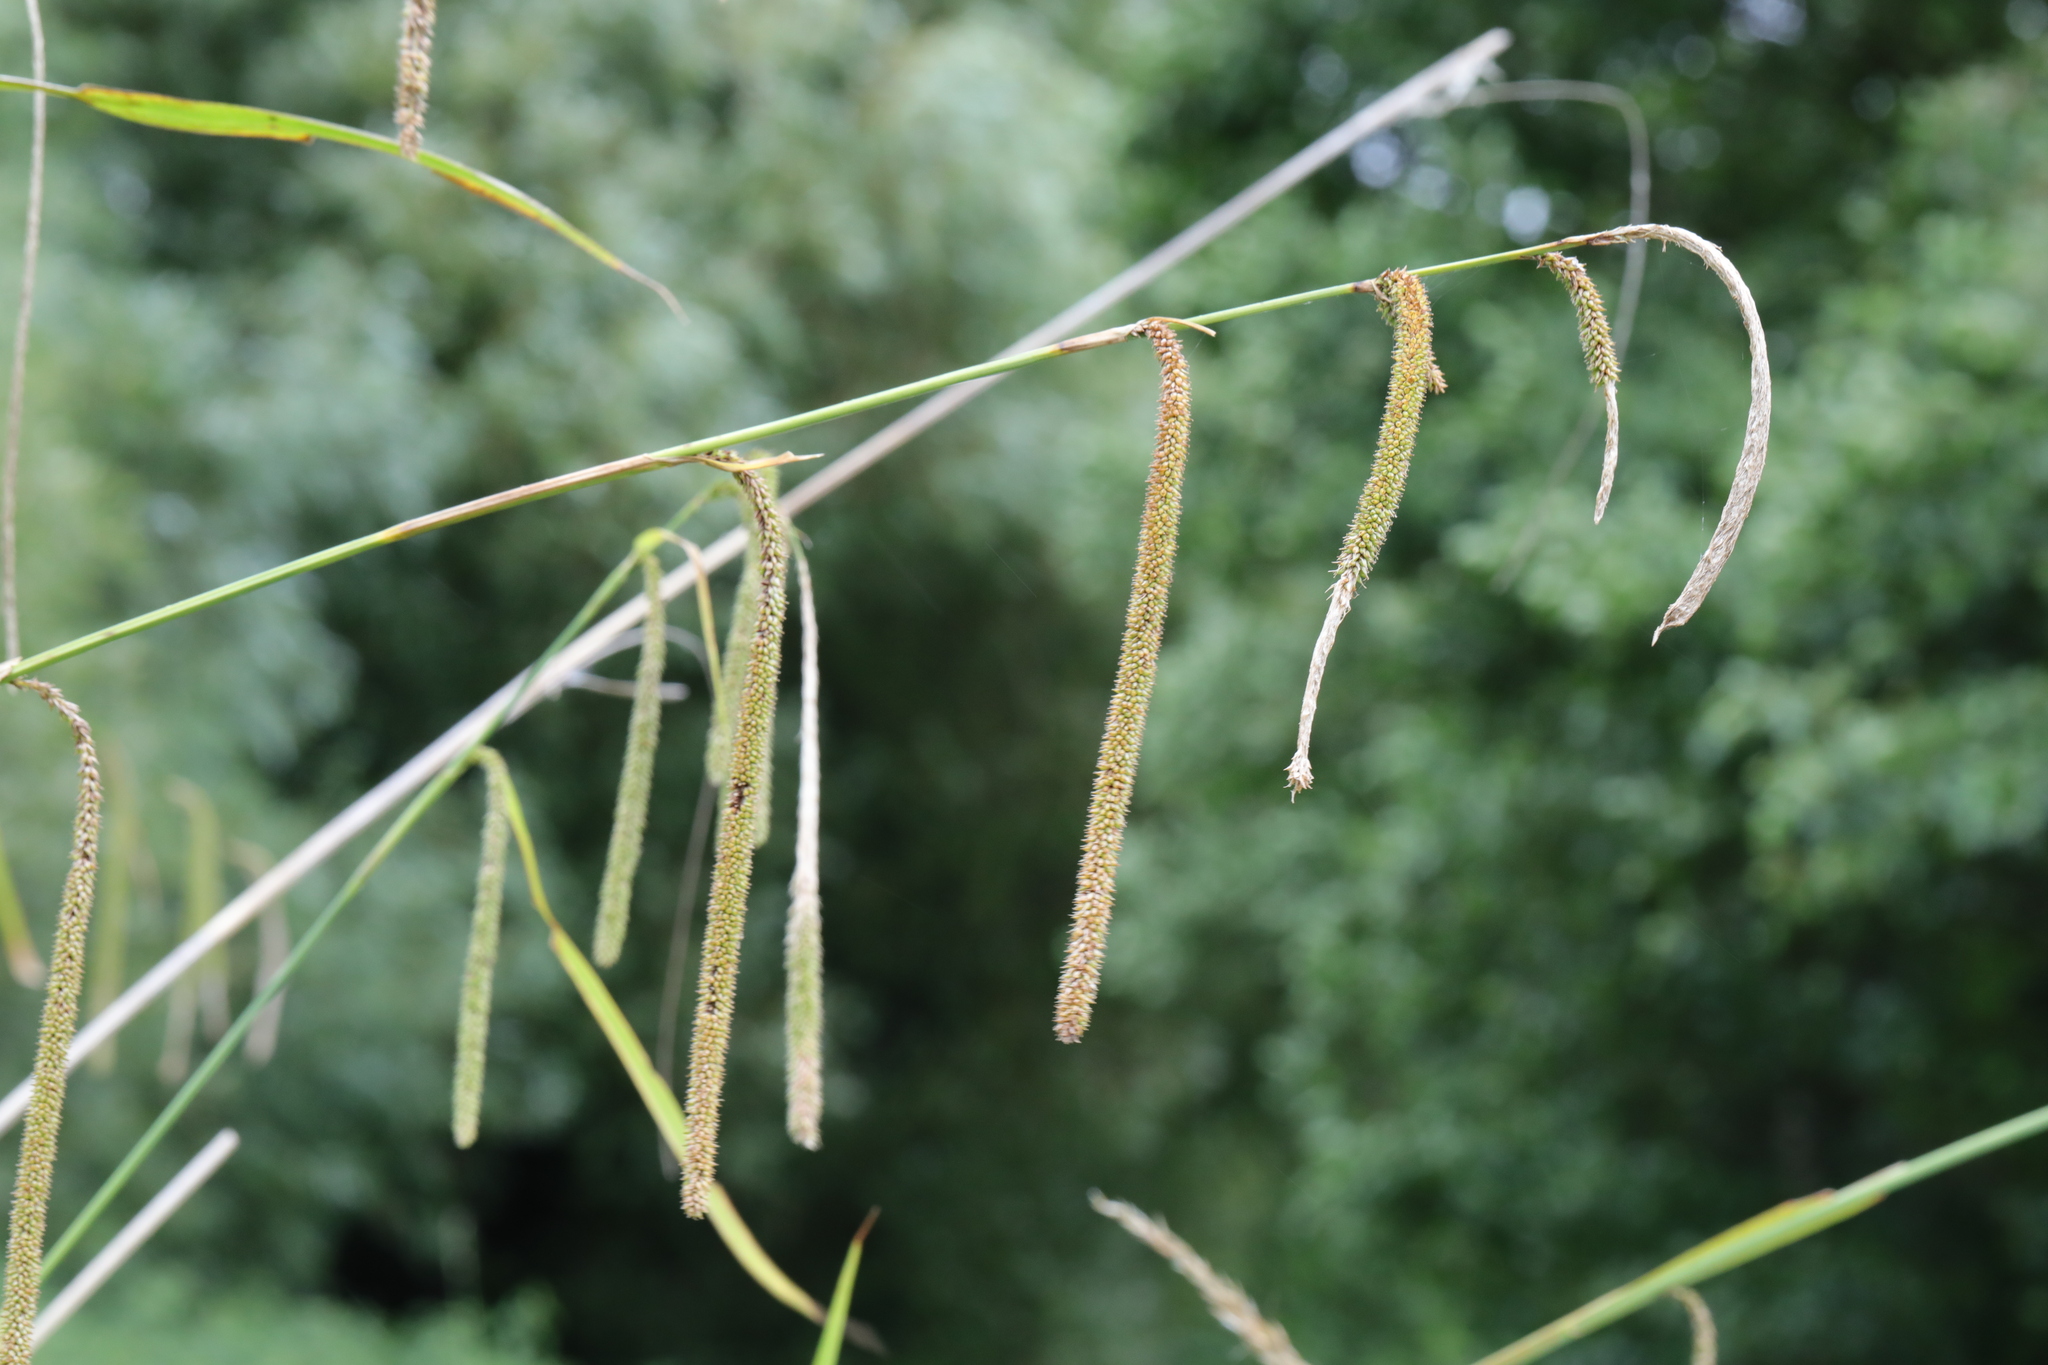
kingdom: Plantae
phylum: Tracheophyta
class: Liliopsida
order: Poales
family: Cyperaceae
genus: Carex
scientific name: Carex pendula
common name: Pendulous sedge
